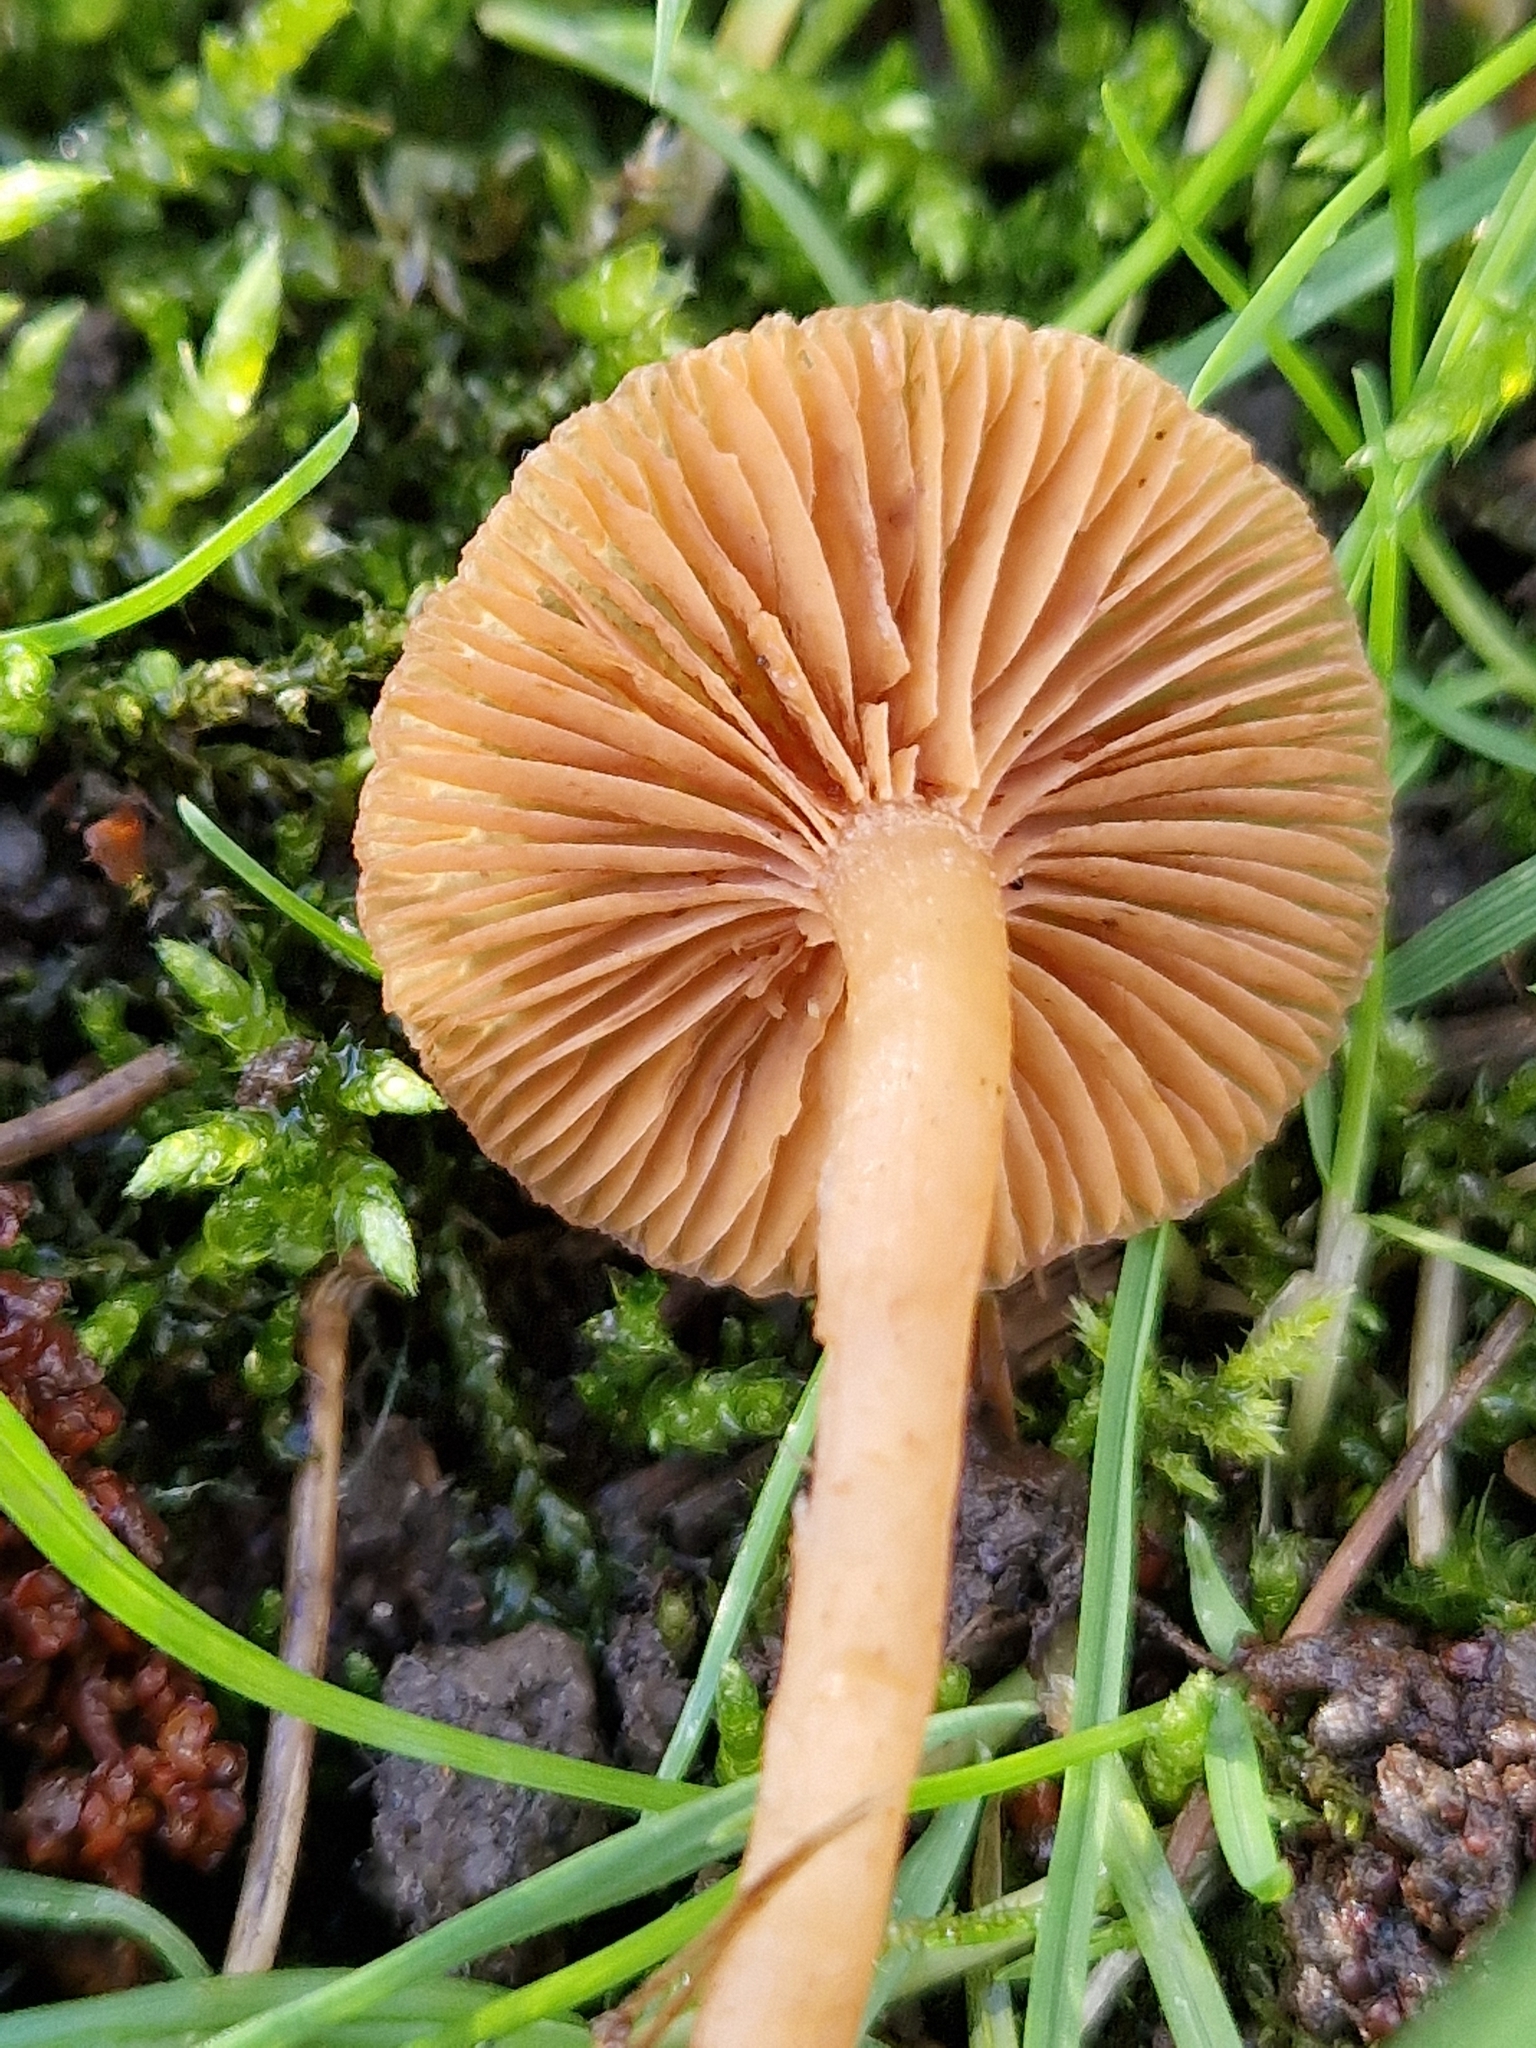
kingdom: Fungi
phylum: Basidiomycota
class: Agaricomycetes
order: Agaricales
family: Tubariaceae
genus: Tubaria
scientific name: Tubaria furfuracea
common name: Scurfy twiglet
